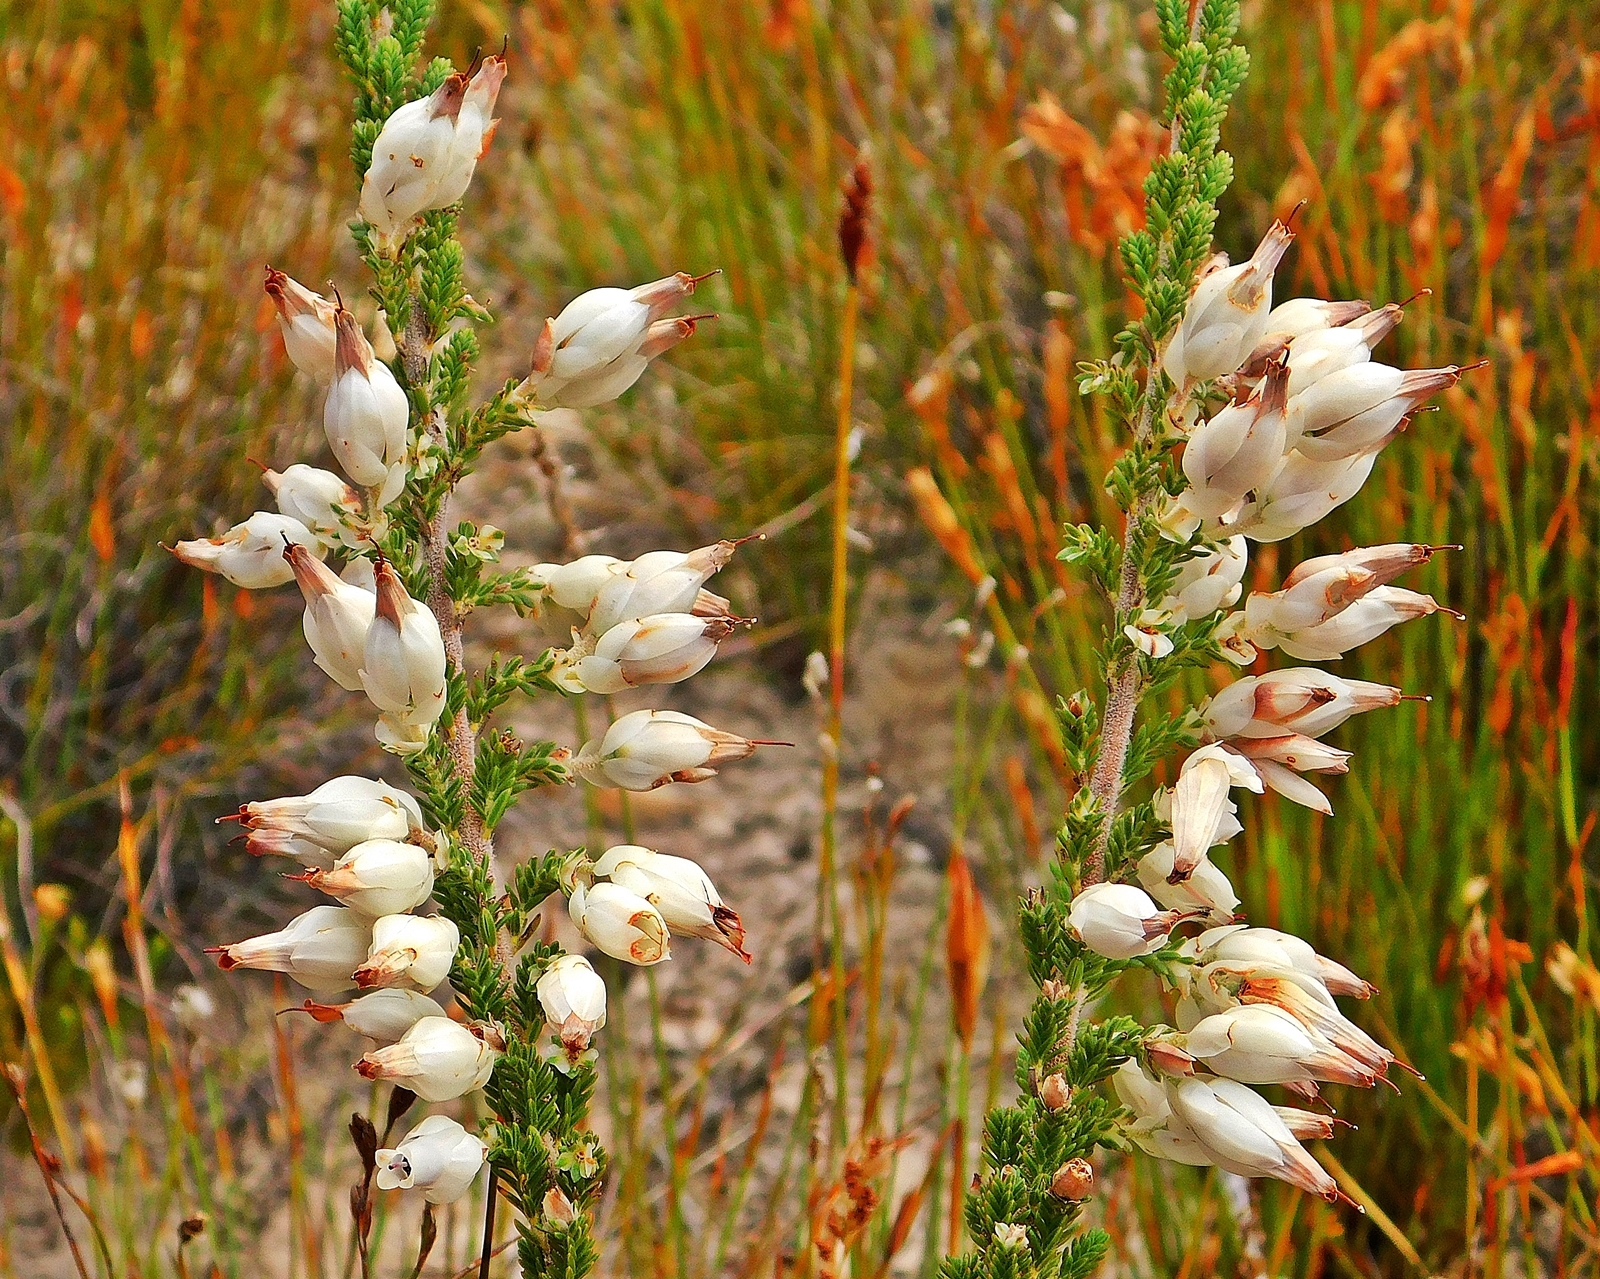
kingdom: Plantae
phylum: Tracheophyta
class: Magnoliopsida
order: Ericales
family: Ericaceae
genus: Erica
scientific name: Erica monsoniana
